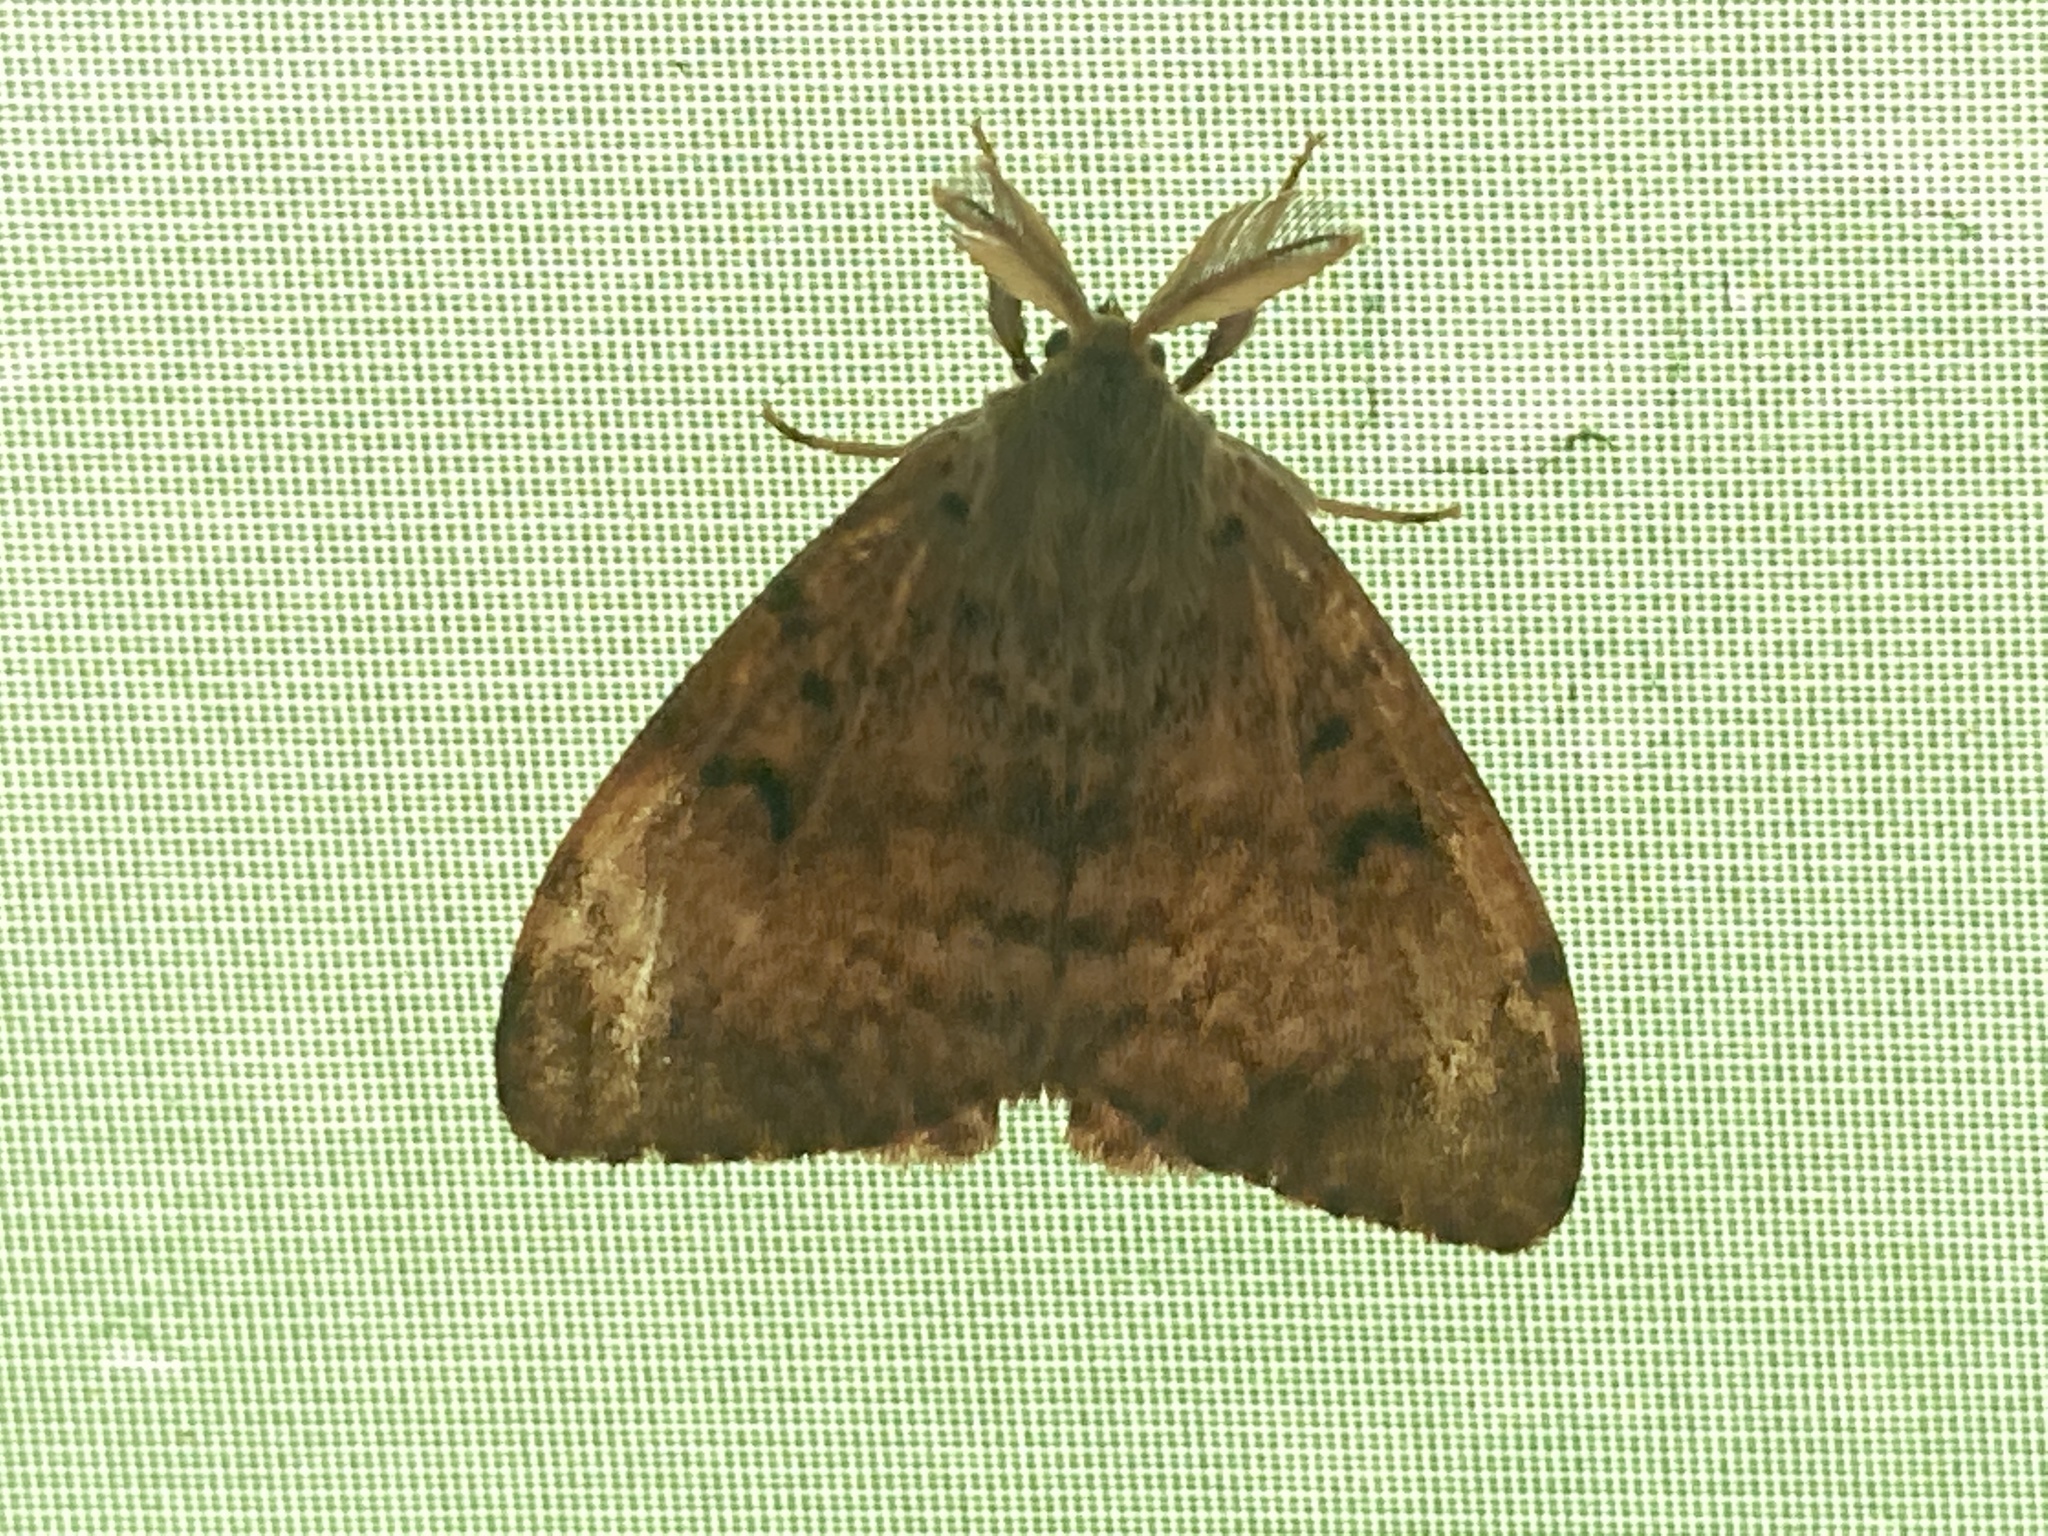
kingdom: Animalia
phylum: Arthropoda
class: Insecta
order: Lepidoptera
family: Erebidae
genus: Lymantria
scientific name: Lymantria dispar
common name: Gypsy moth
